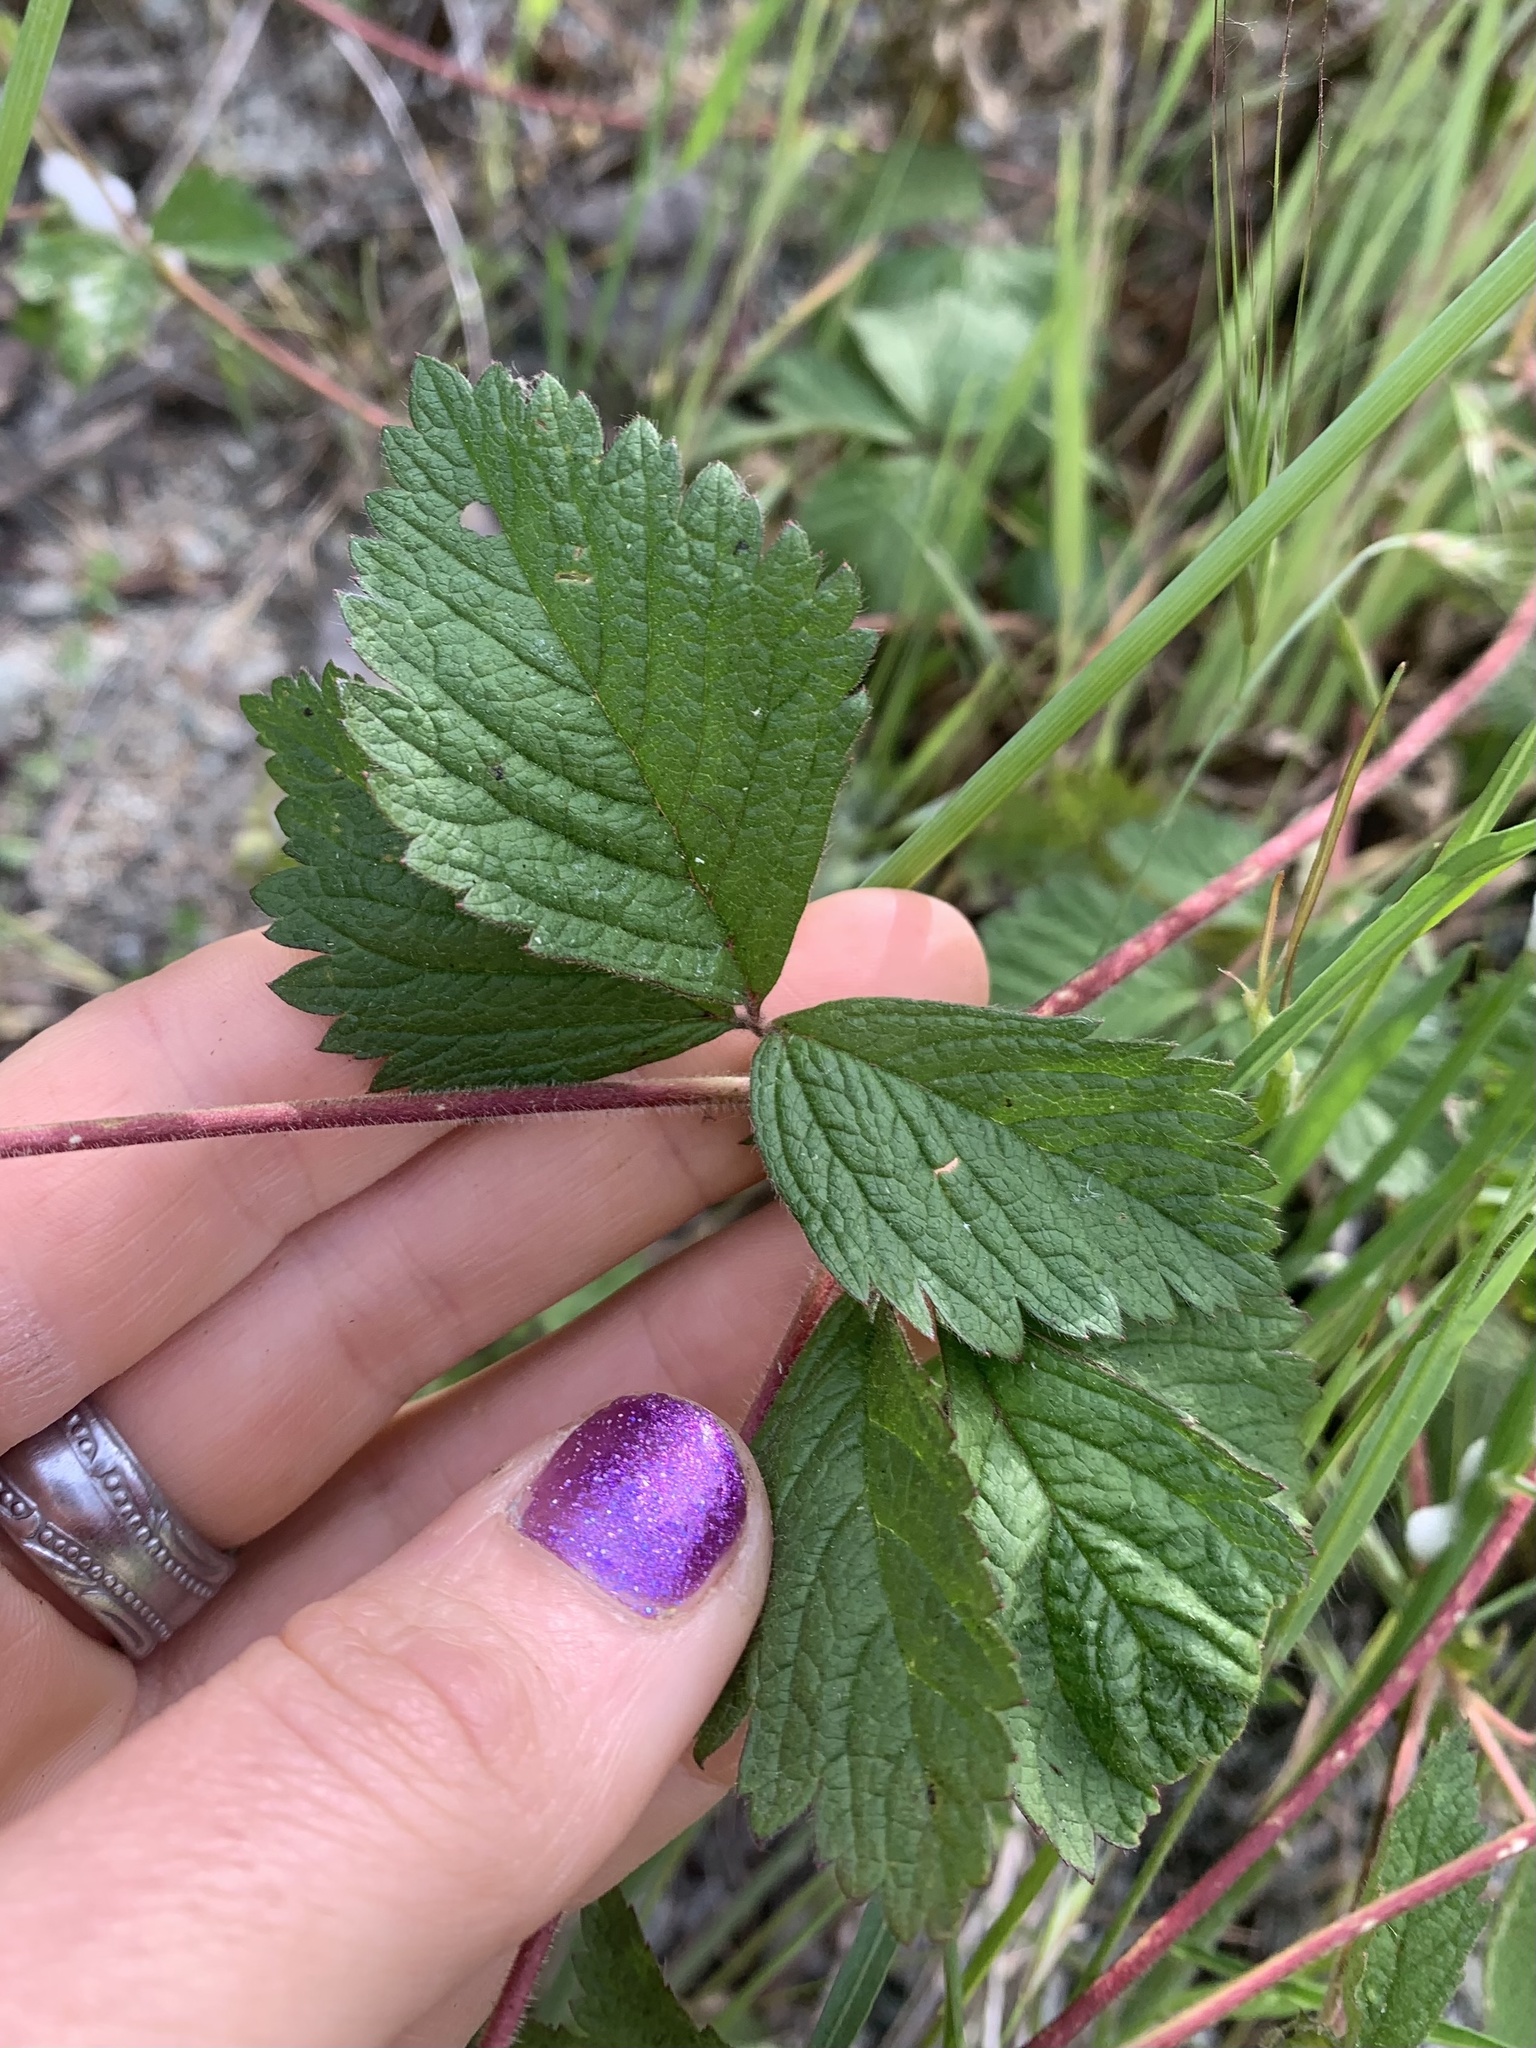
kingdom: Plantae
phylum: Tracheophyta
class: Magnoliopsida
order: Rosales
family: Rosaceae
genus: Drymocallis
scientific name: Drymocallis glandulosa
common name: Sticky cinquefoil
